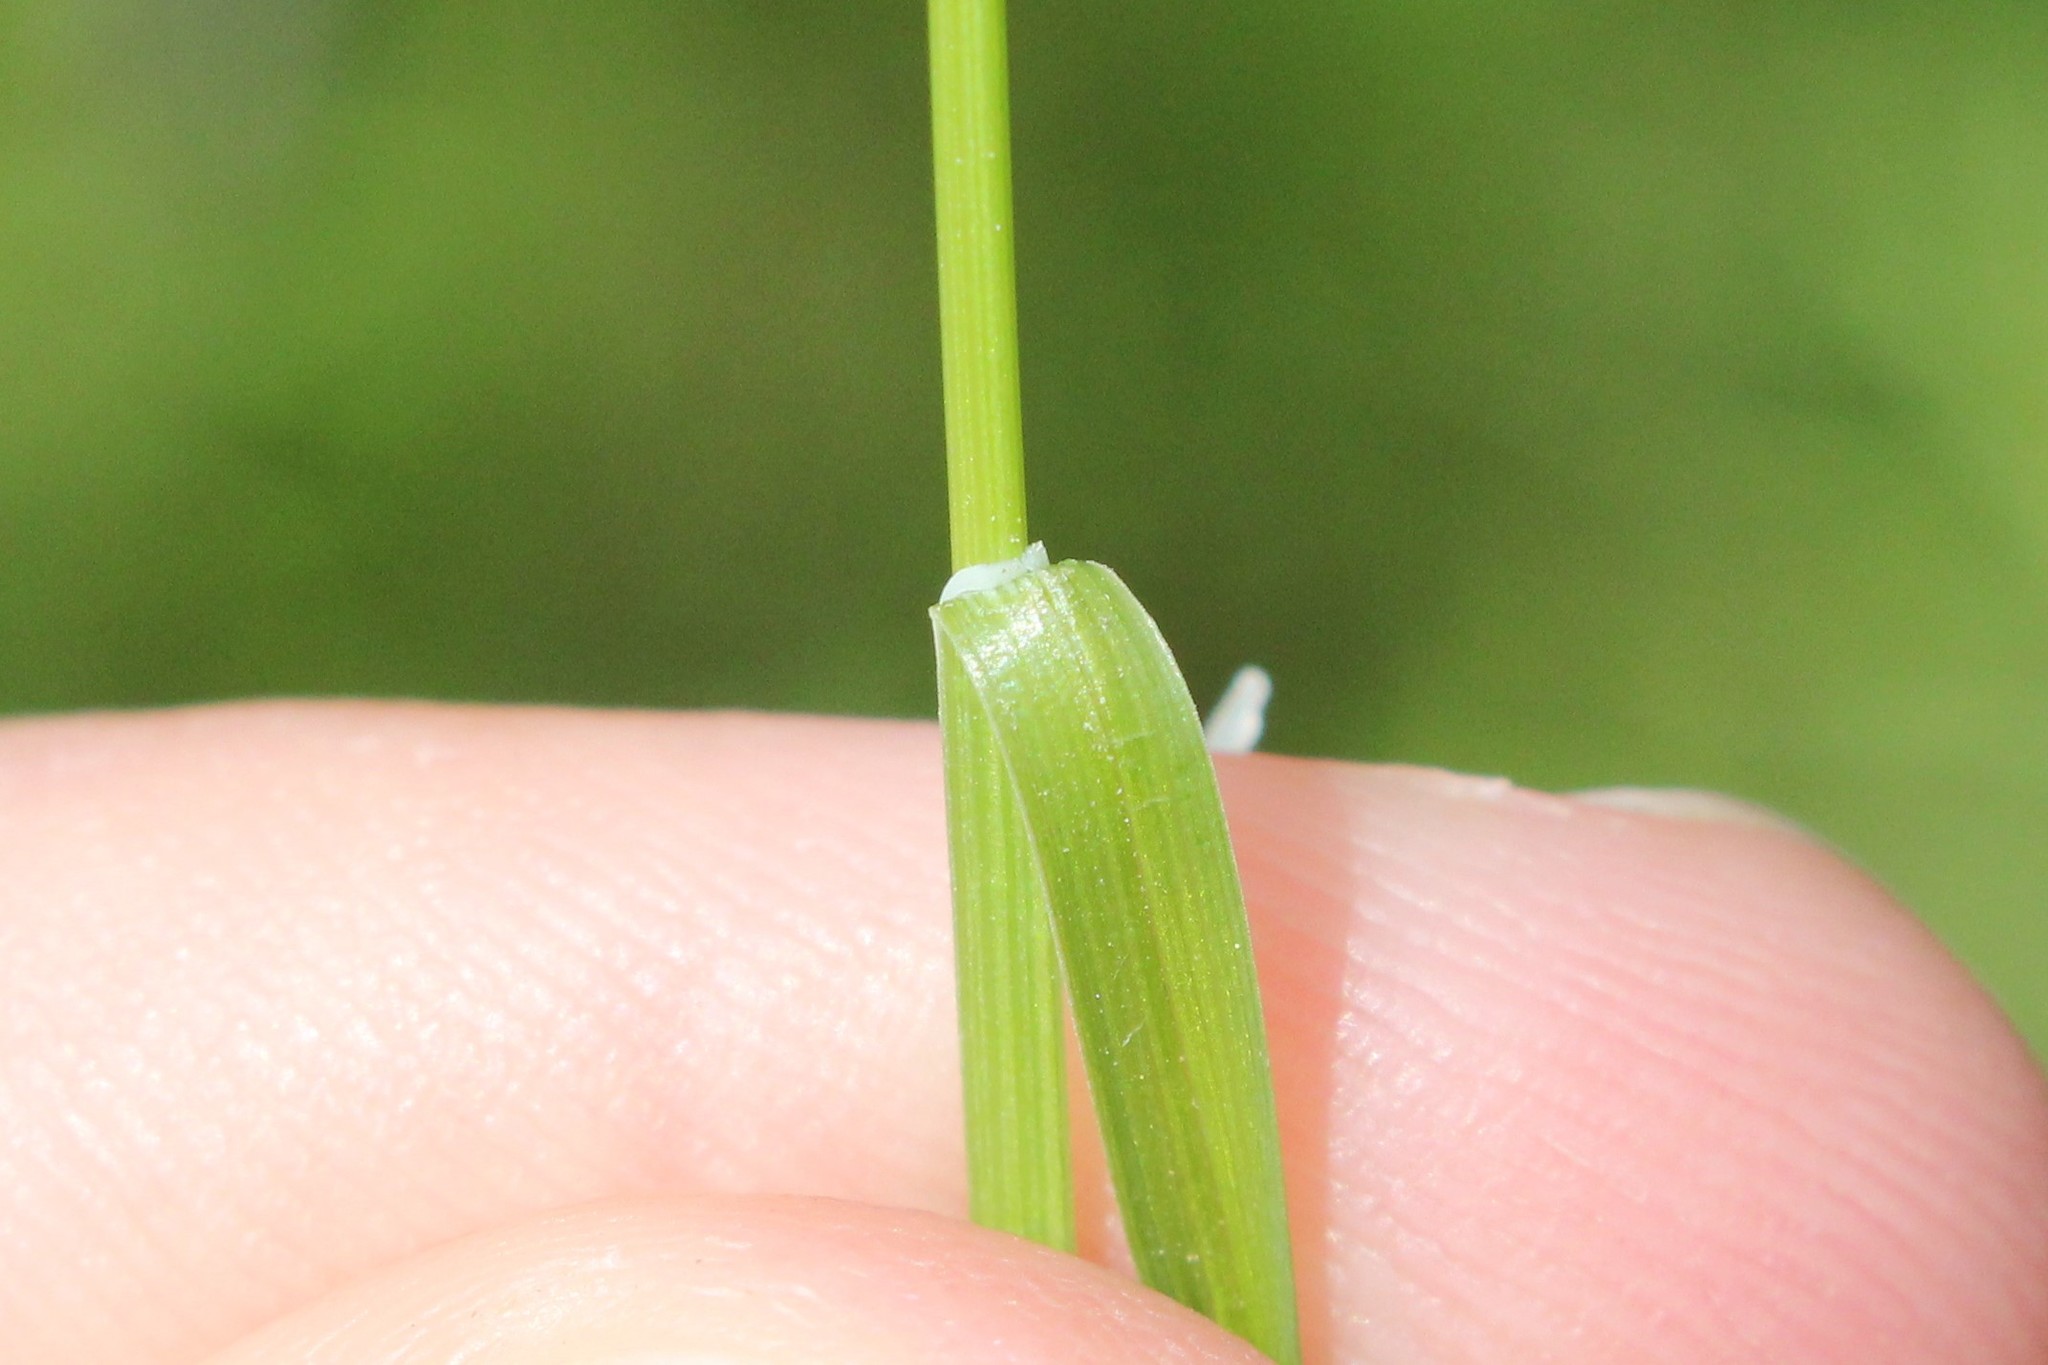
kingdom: Plantae
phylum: Tracheophyta
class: Liliopsida
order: Poales
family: Cyperaceae
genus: Carex
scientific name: Carex meadii
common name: Mead's sedge
